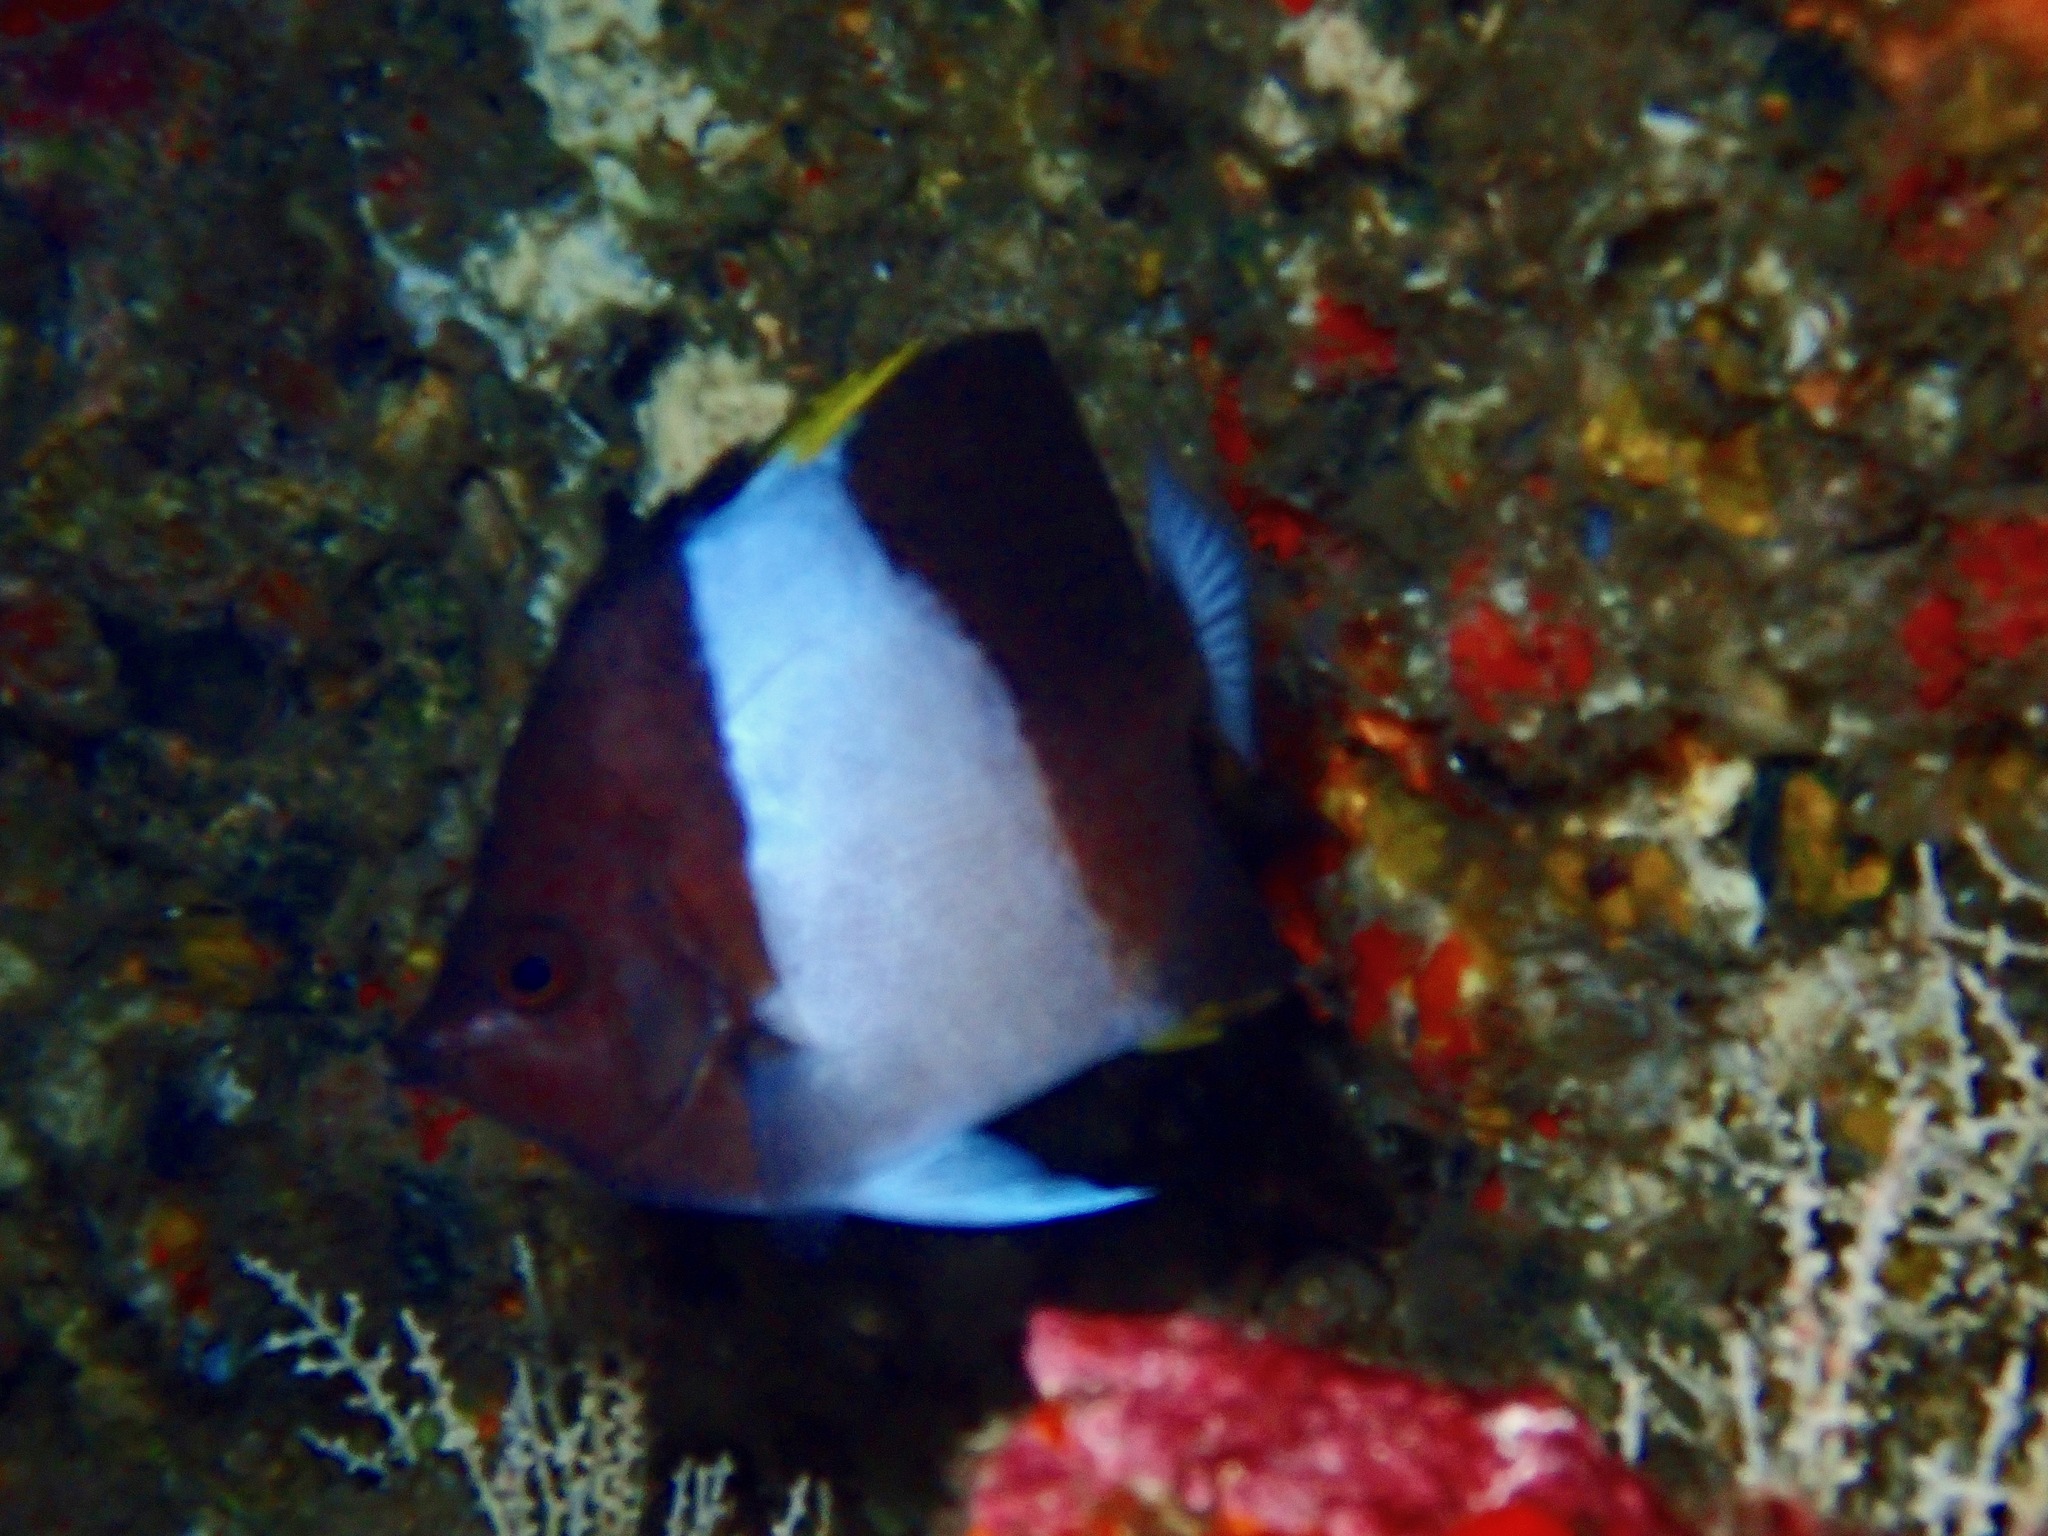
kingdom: Animalia
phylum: Chordata
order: Perciformes
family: Chaetodontidae
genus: Hemitaurichthys
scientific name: Hemitaurichthys zoster
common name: Brown-and-white butterflyfish
